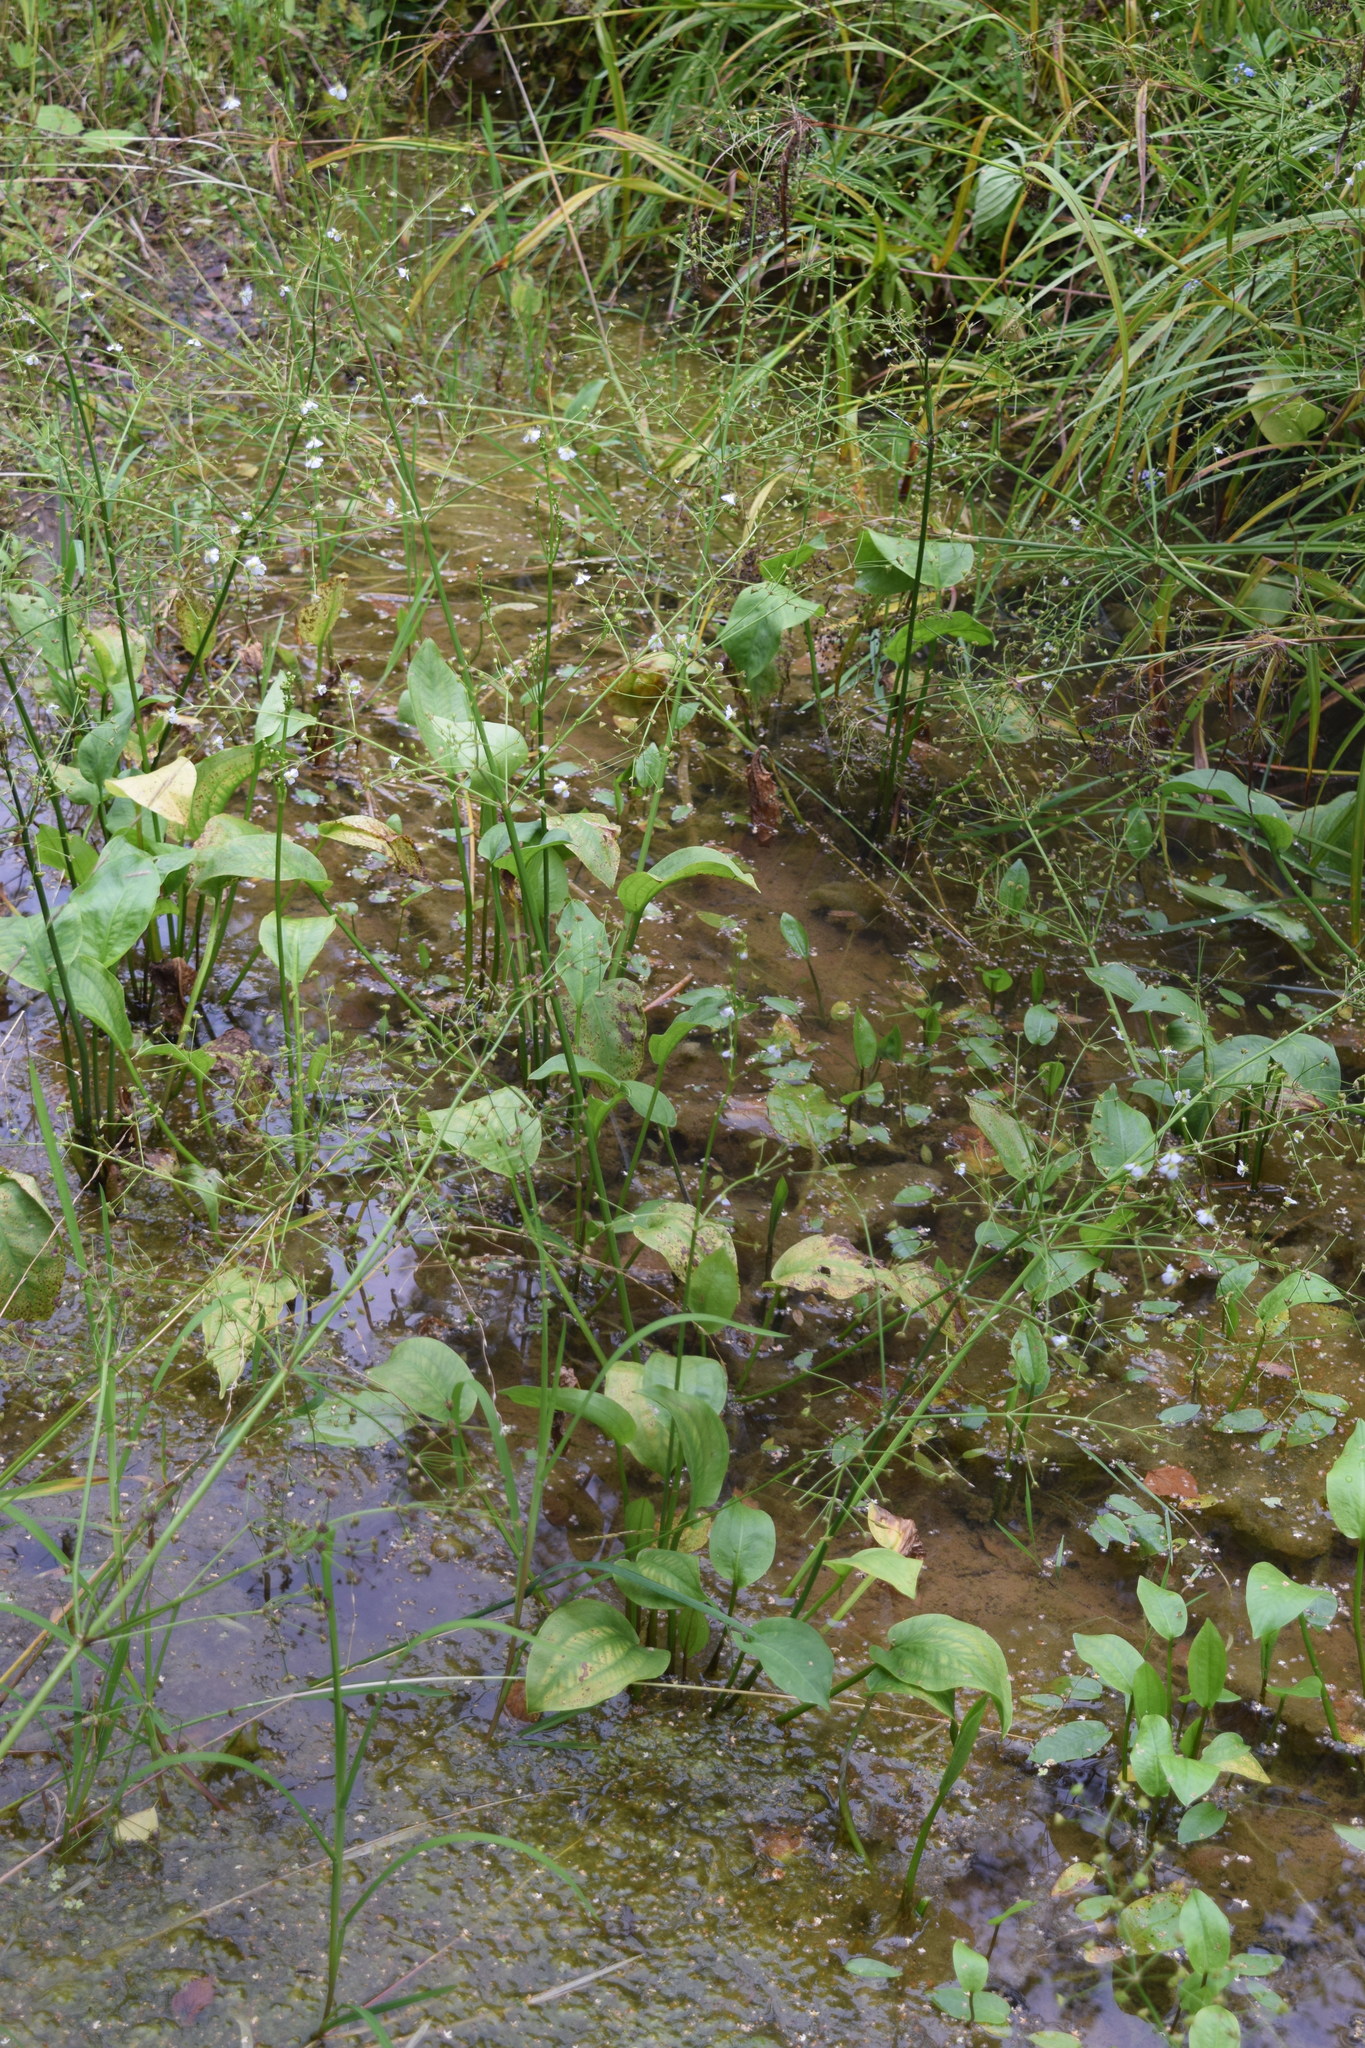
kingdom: Plantae
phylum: Tracheophyta
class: Liliopsida
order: Alismatales
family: Alismataceae
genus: Alisma
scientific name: Alisma plantago-aquatica
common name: Water-plantain
